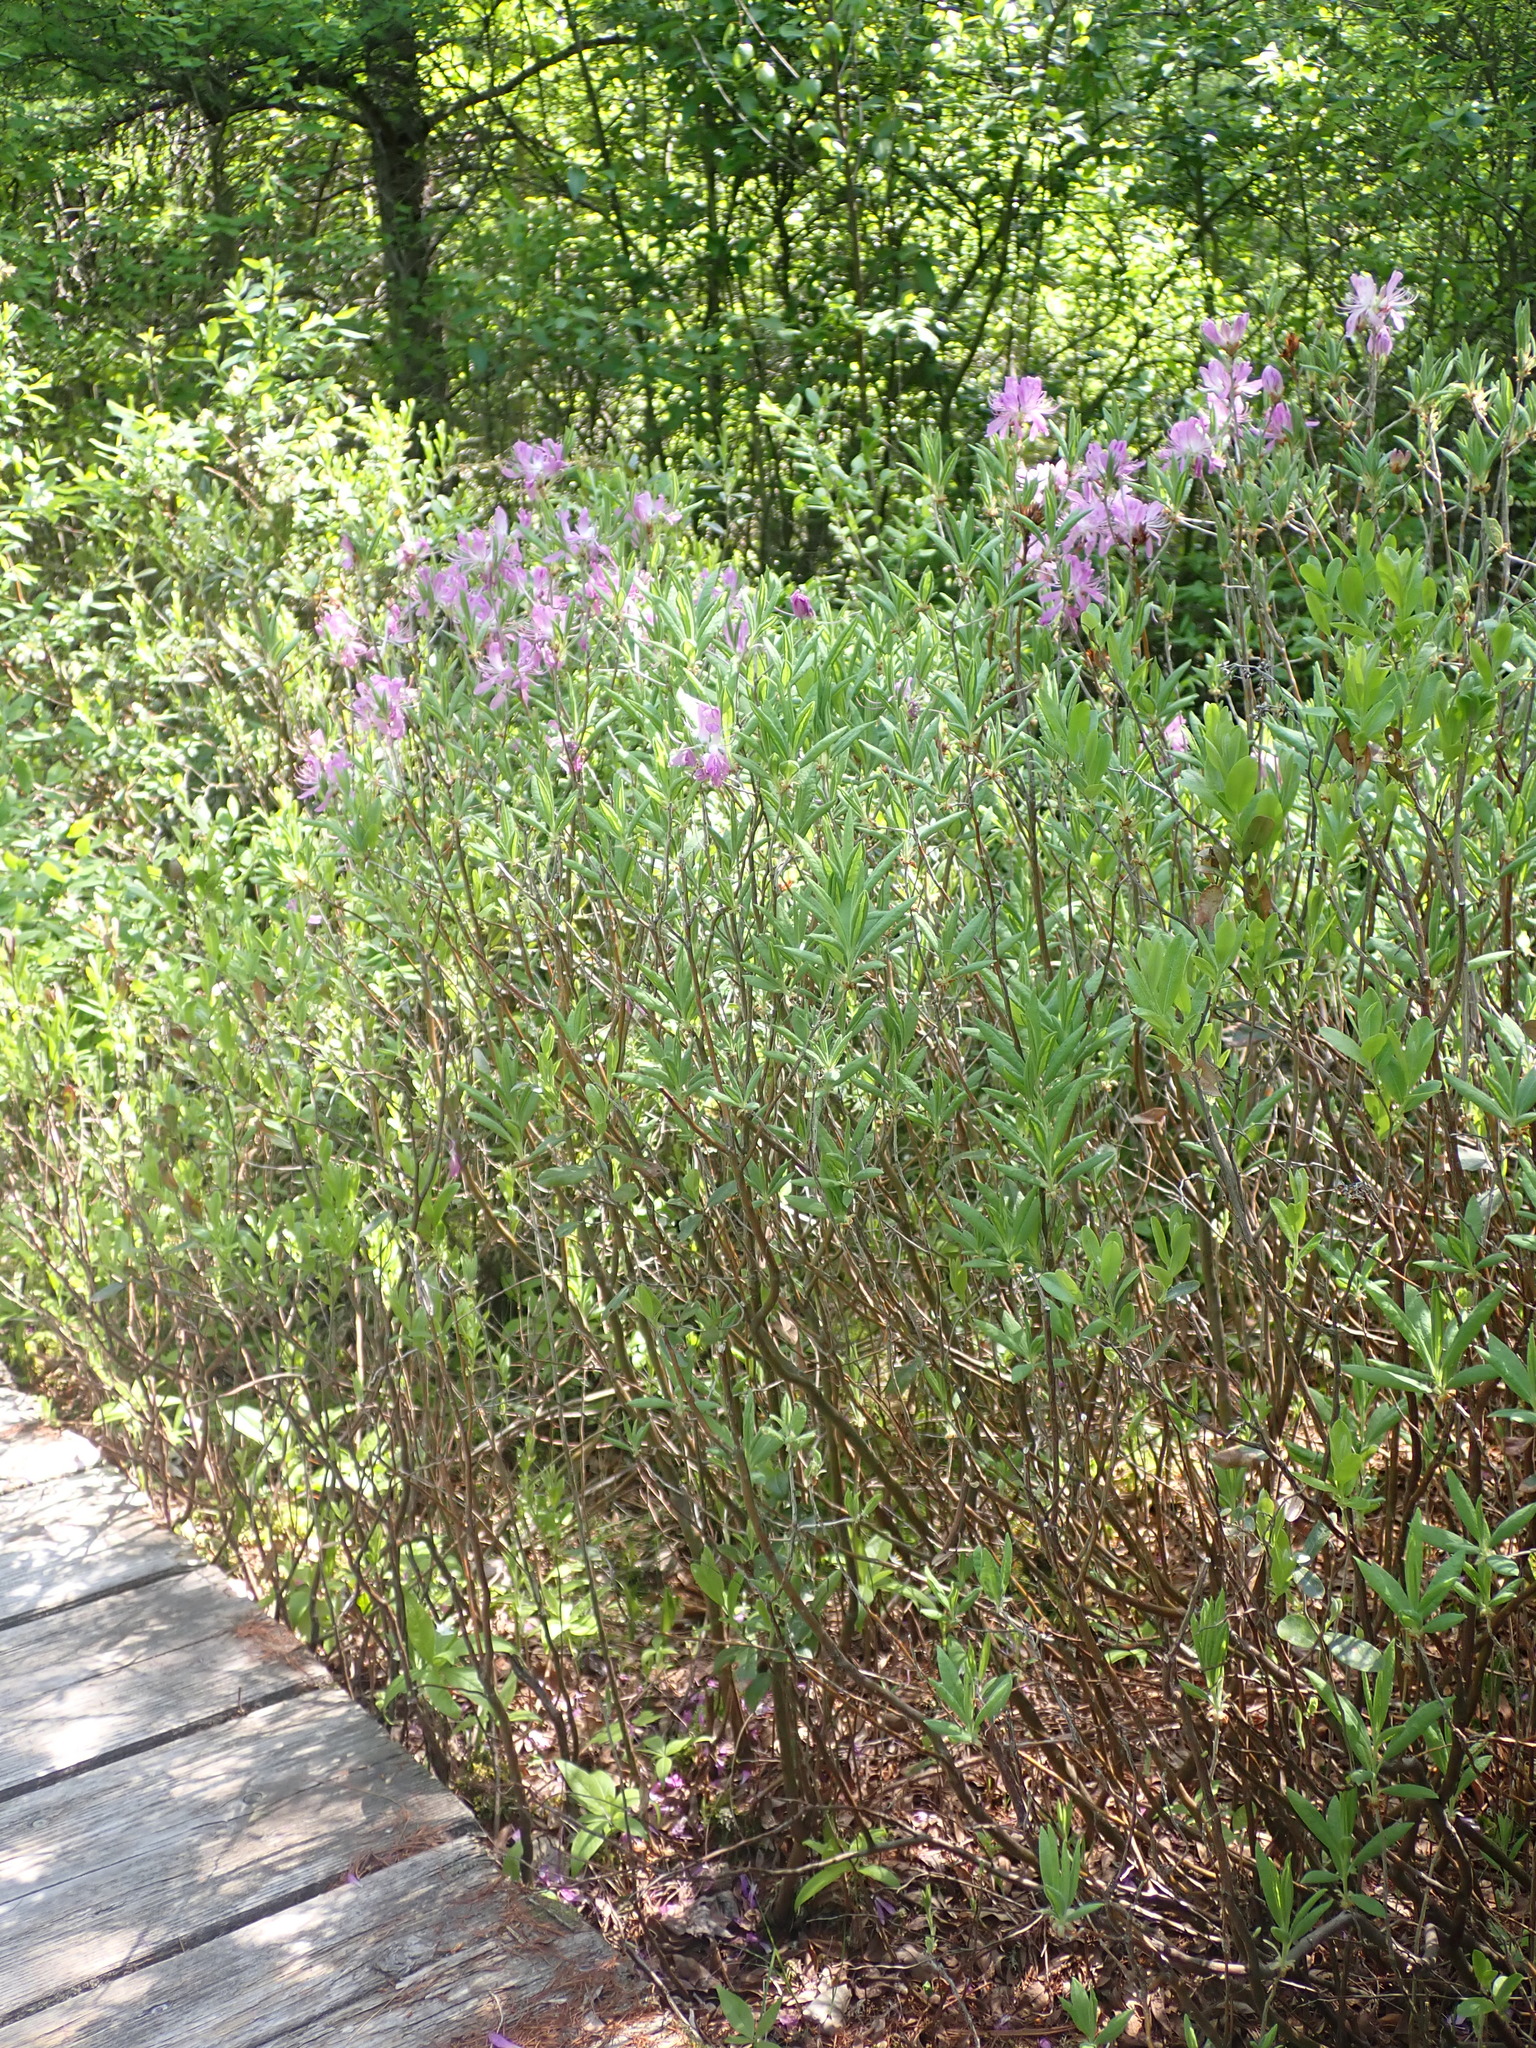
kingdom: Plantae
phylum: Tracheophyta
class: Magnoliopsida
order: Ericales
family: Ericaceae
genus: Rhododendron
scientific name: Rhododendron canadense
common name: Rhodora
